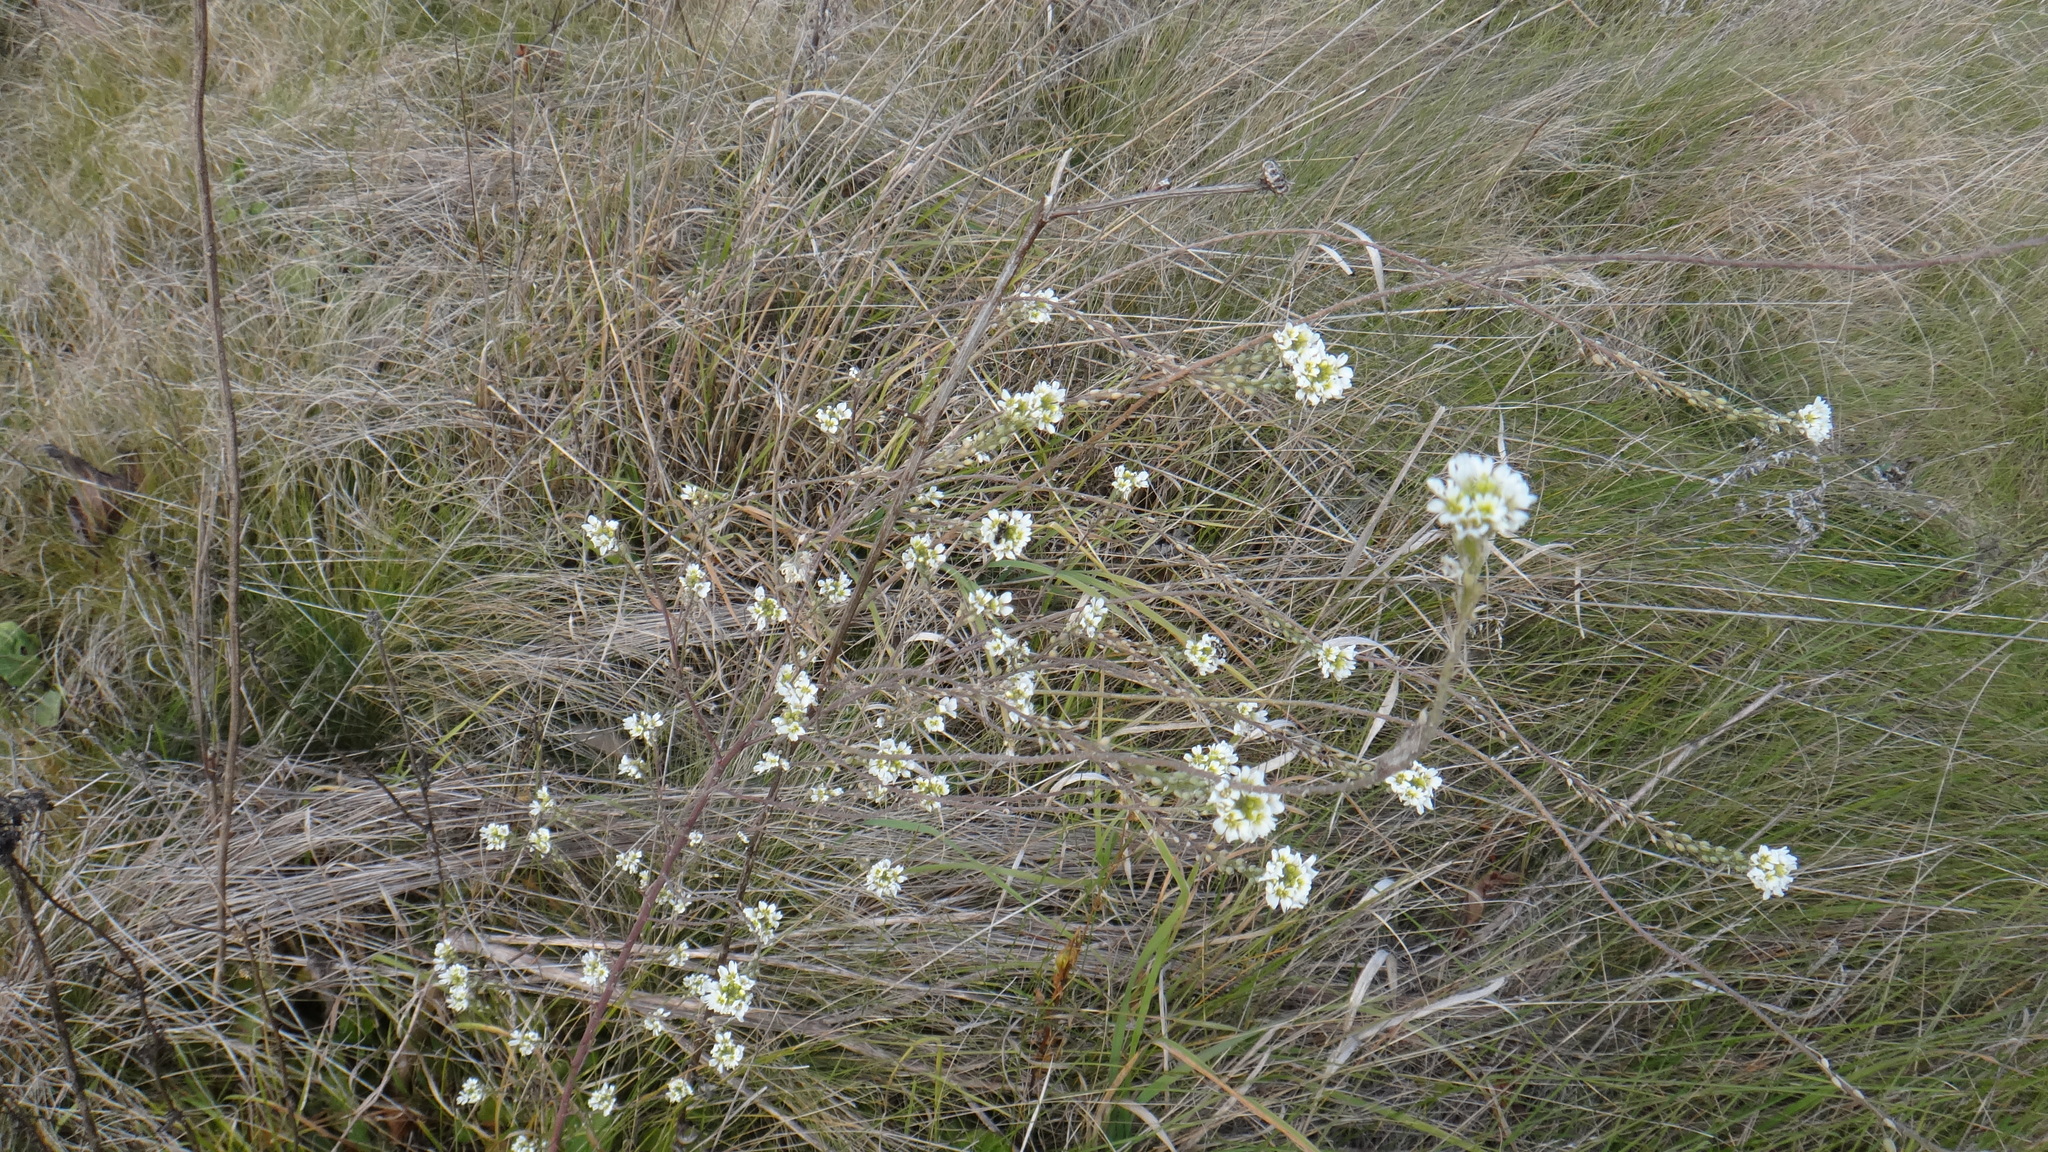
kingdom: Plantae
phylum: Tracheophyta
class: Magnoliopsida
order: Brassicales
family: Brassicaceae
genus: Berteroa
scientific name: Berteroa incana
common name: Hoary alison
